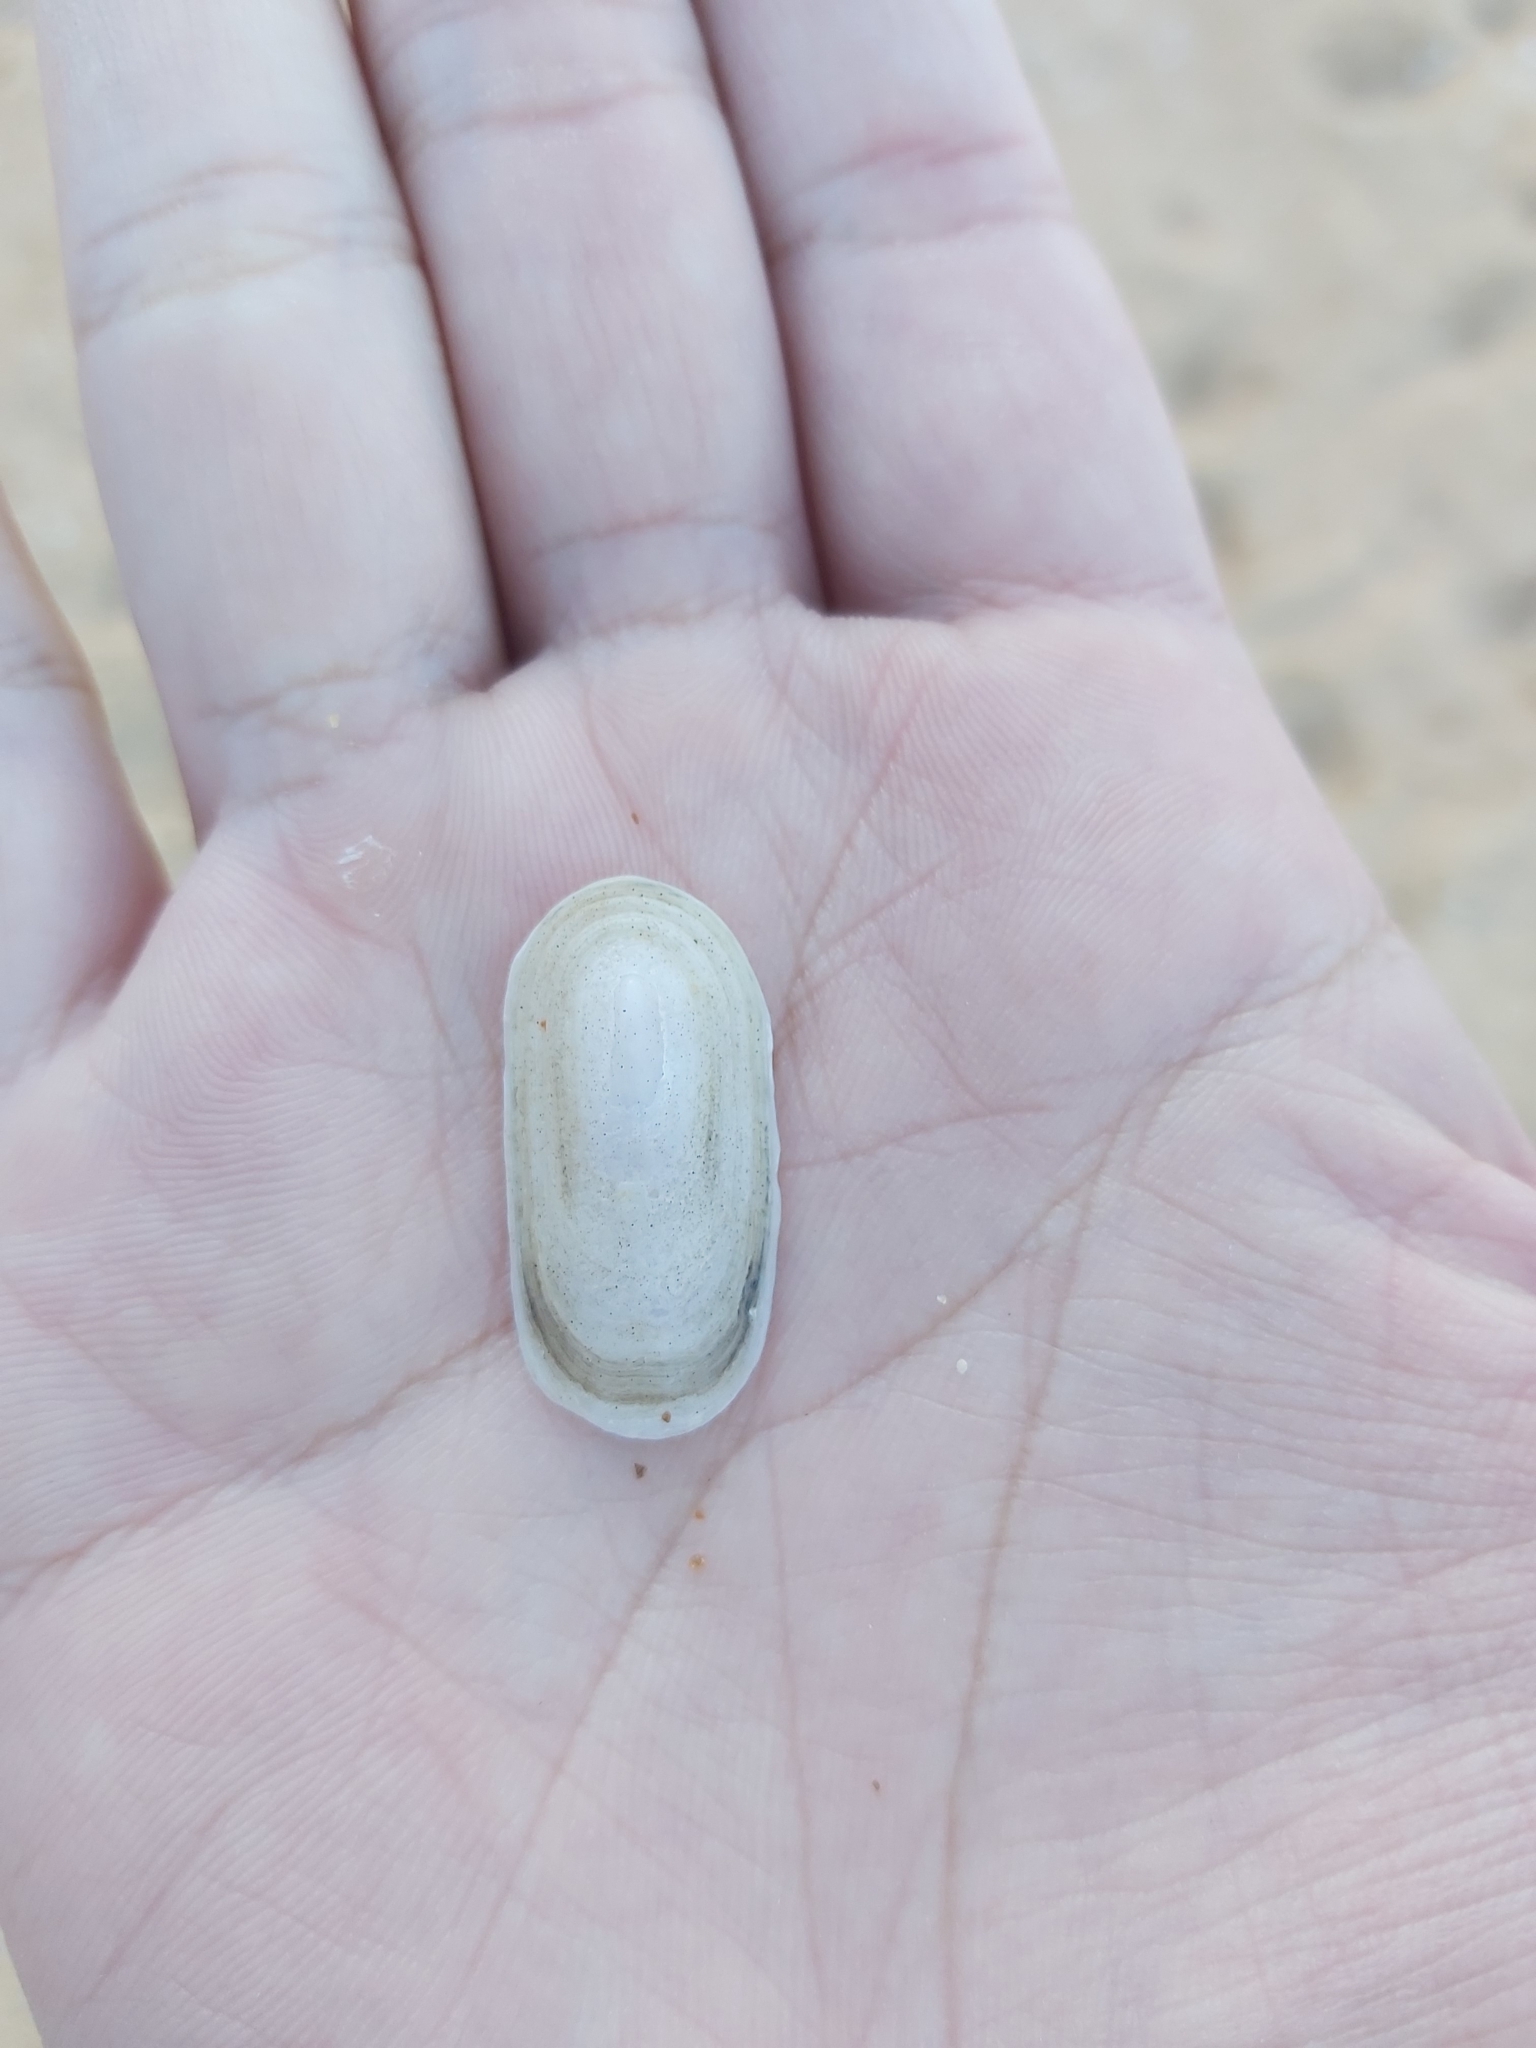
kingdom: Animalia
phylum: Mollusca
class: Gastropoda
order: Lepetellida
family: Fissurellidae
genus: Scutus
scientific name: Scutus antipodes
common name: Duckbill shell
